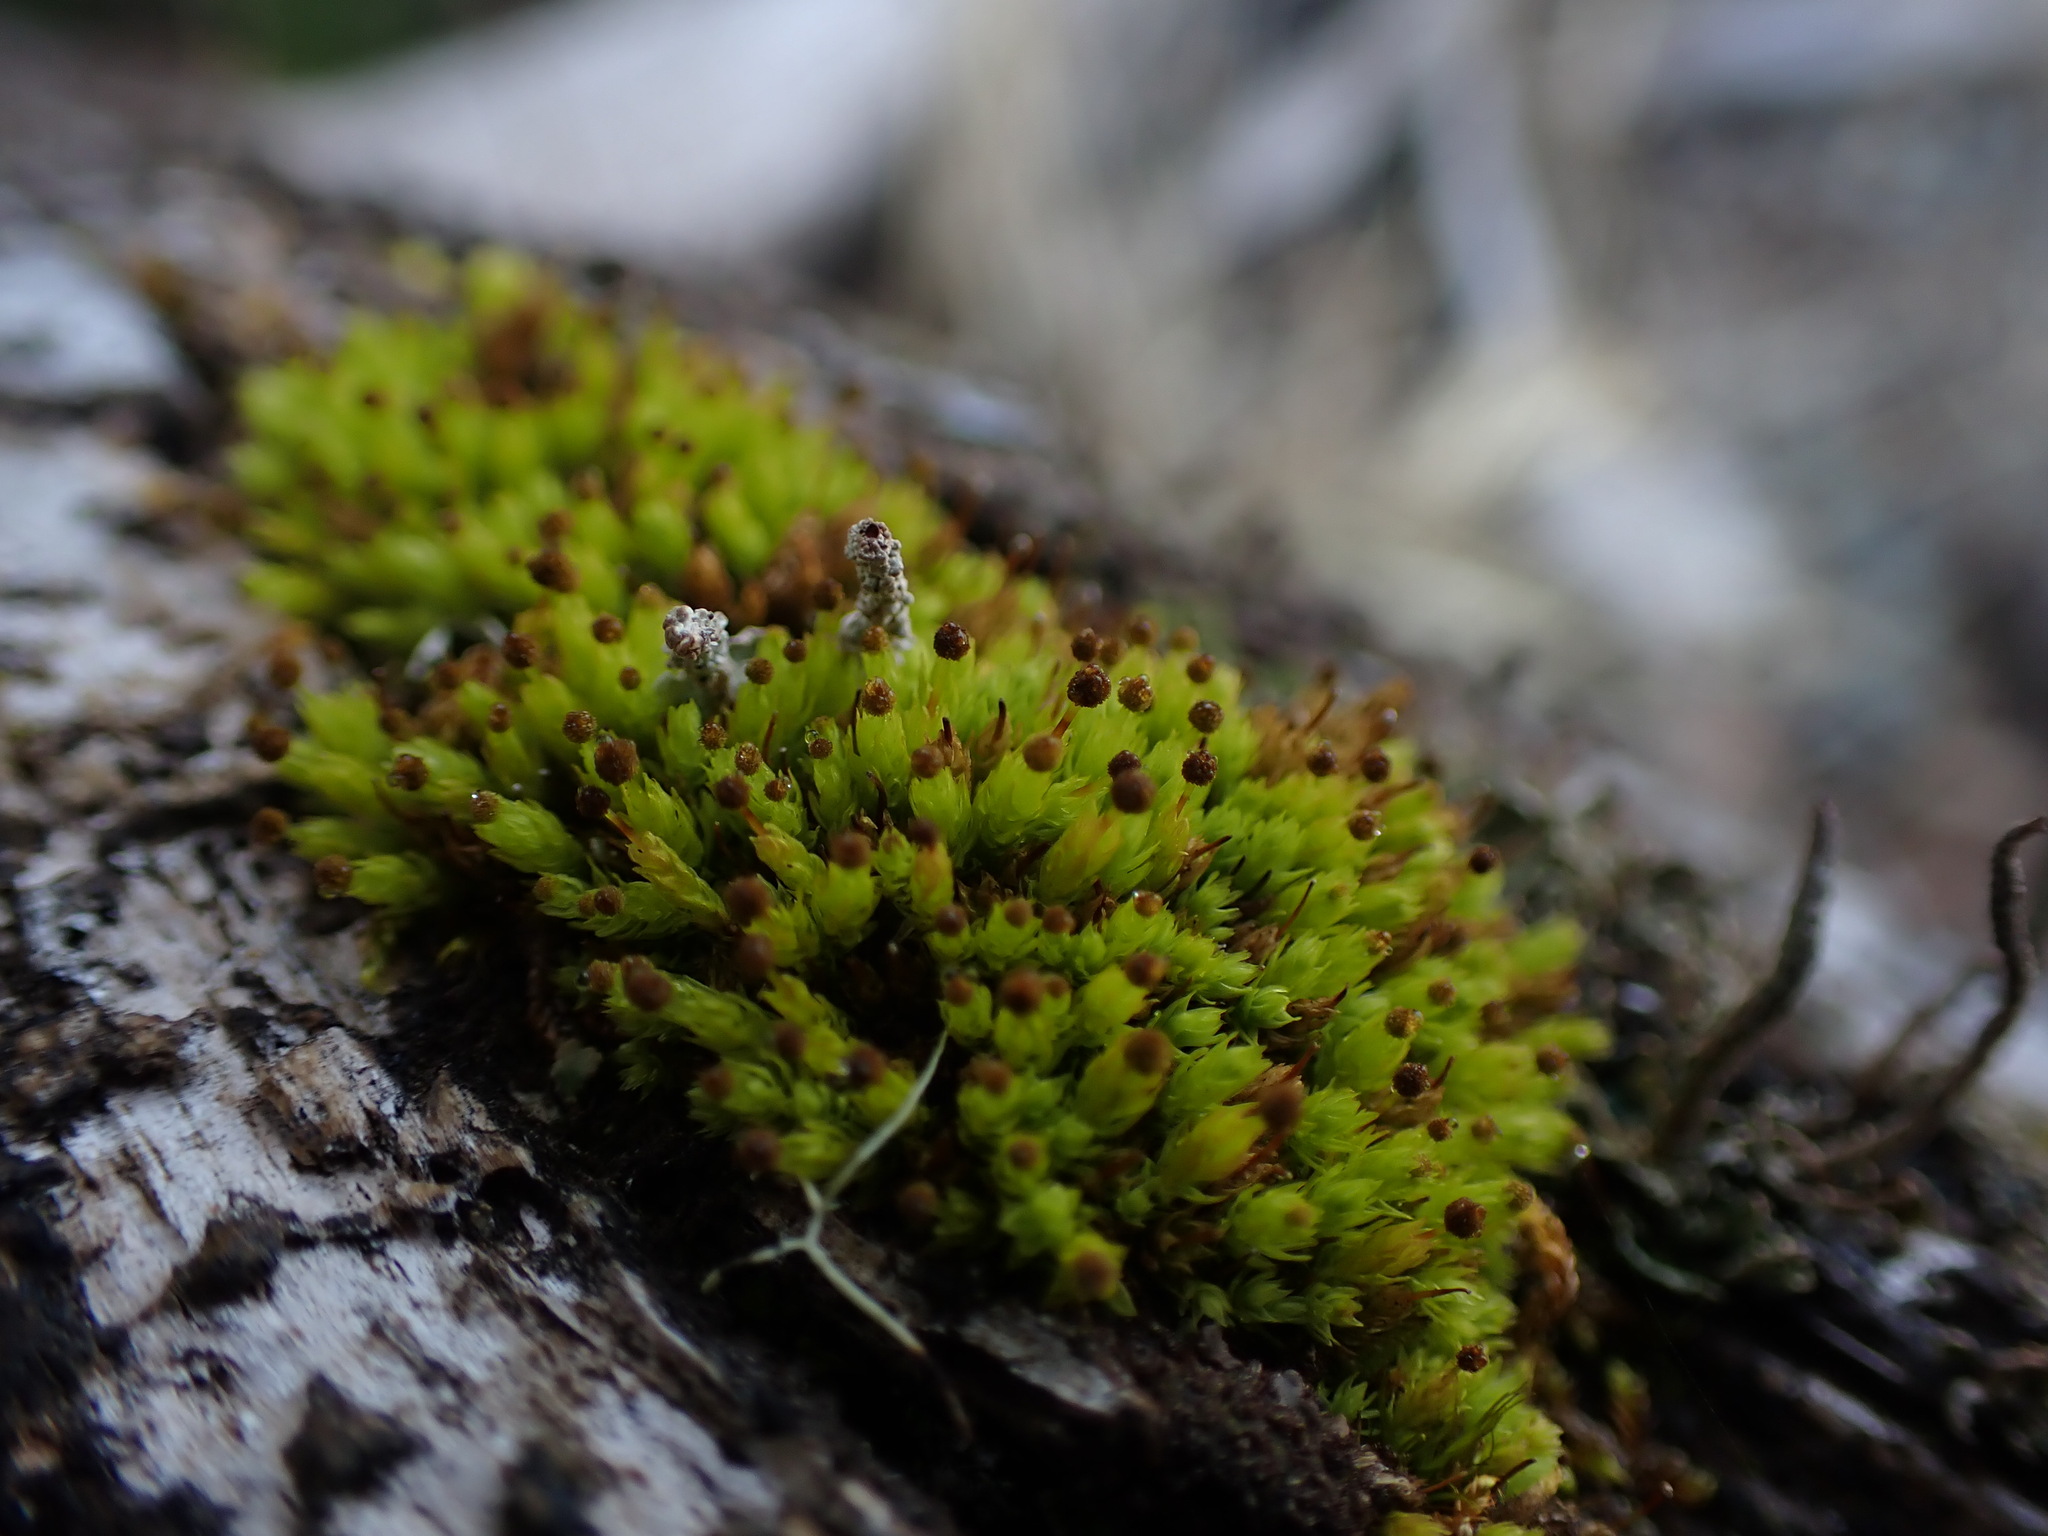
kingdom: Plantae
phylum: Bryophyta
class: Bryopsida
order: Aulacomniales
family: Aulacomniaceae
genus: Aulacomnium
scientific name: Aulacomnium androgynum
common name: Little groove moss
